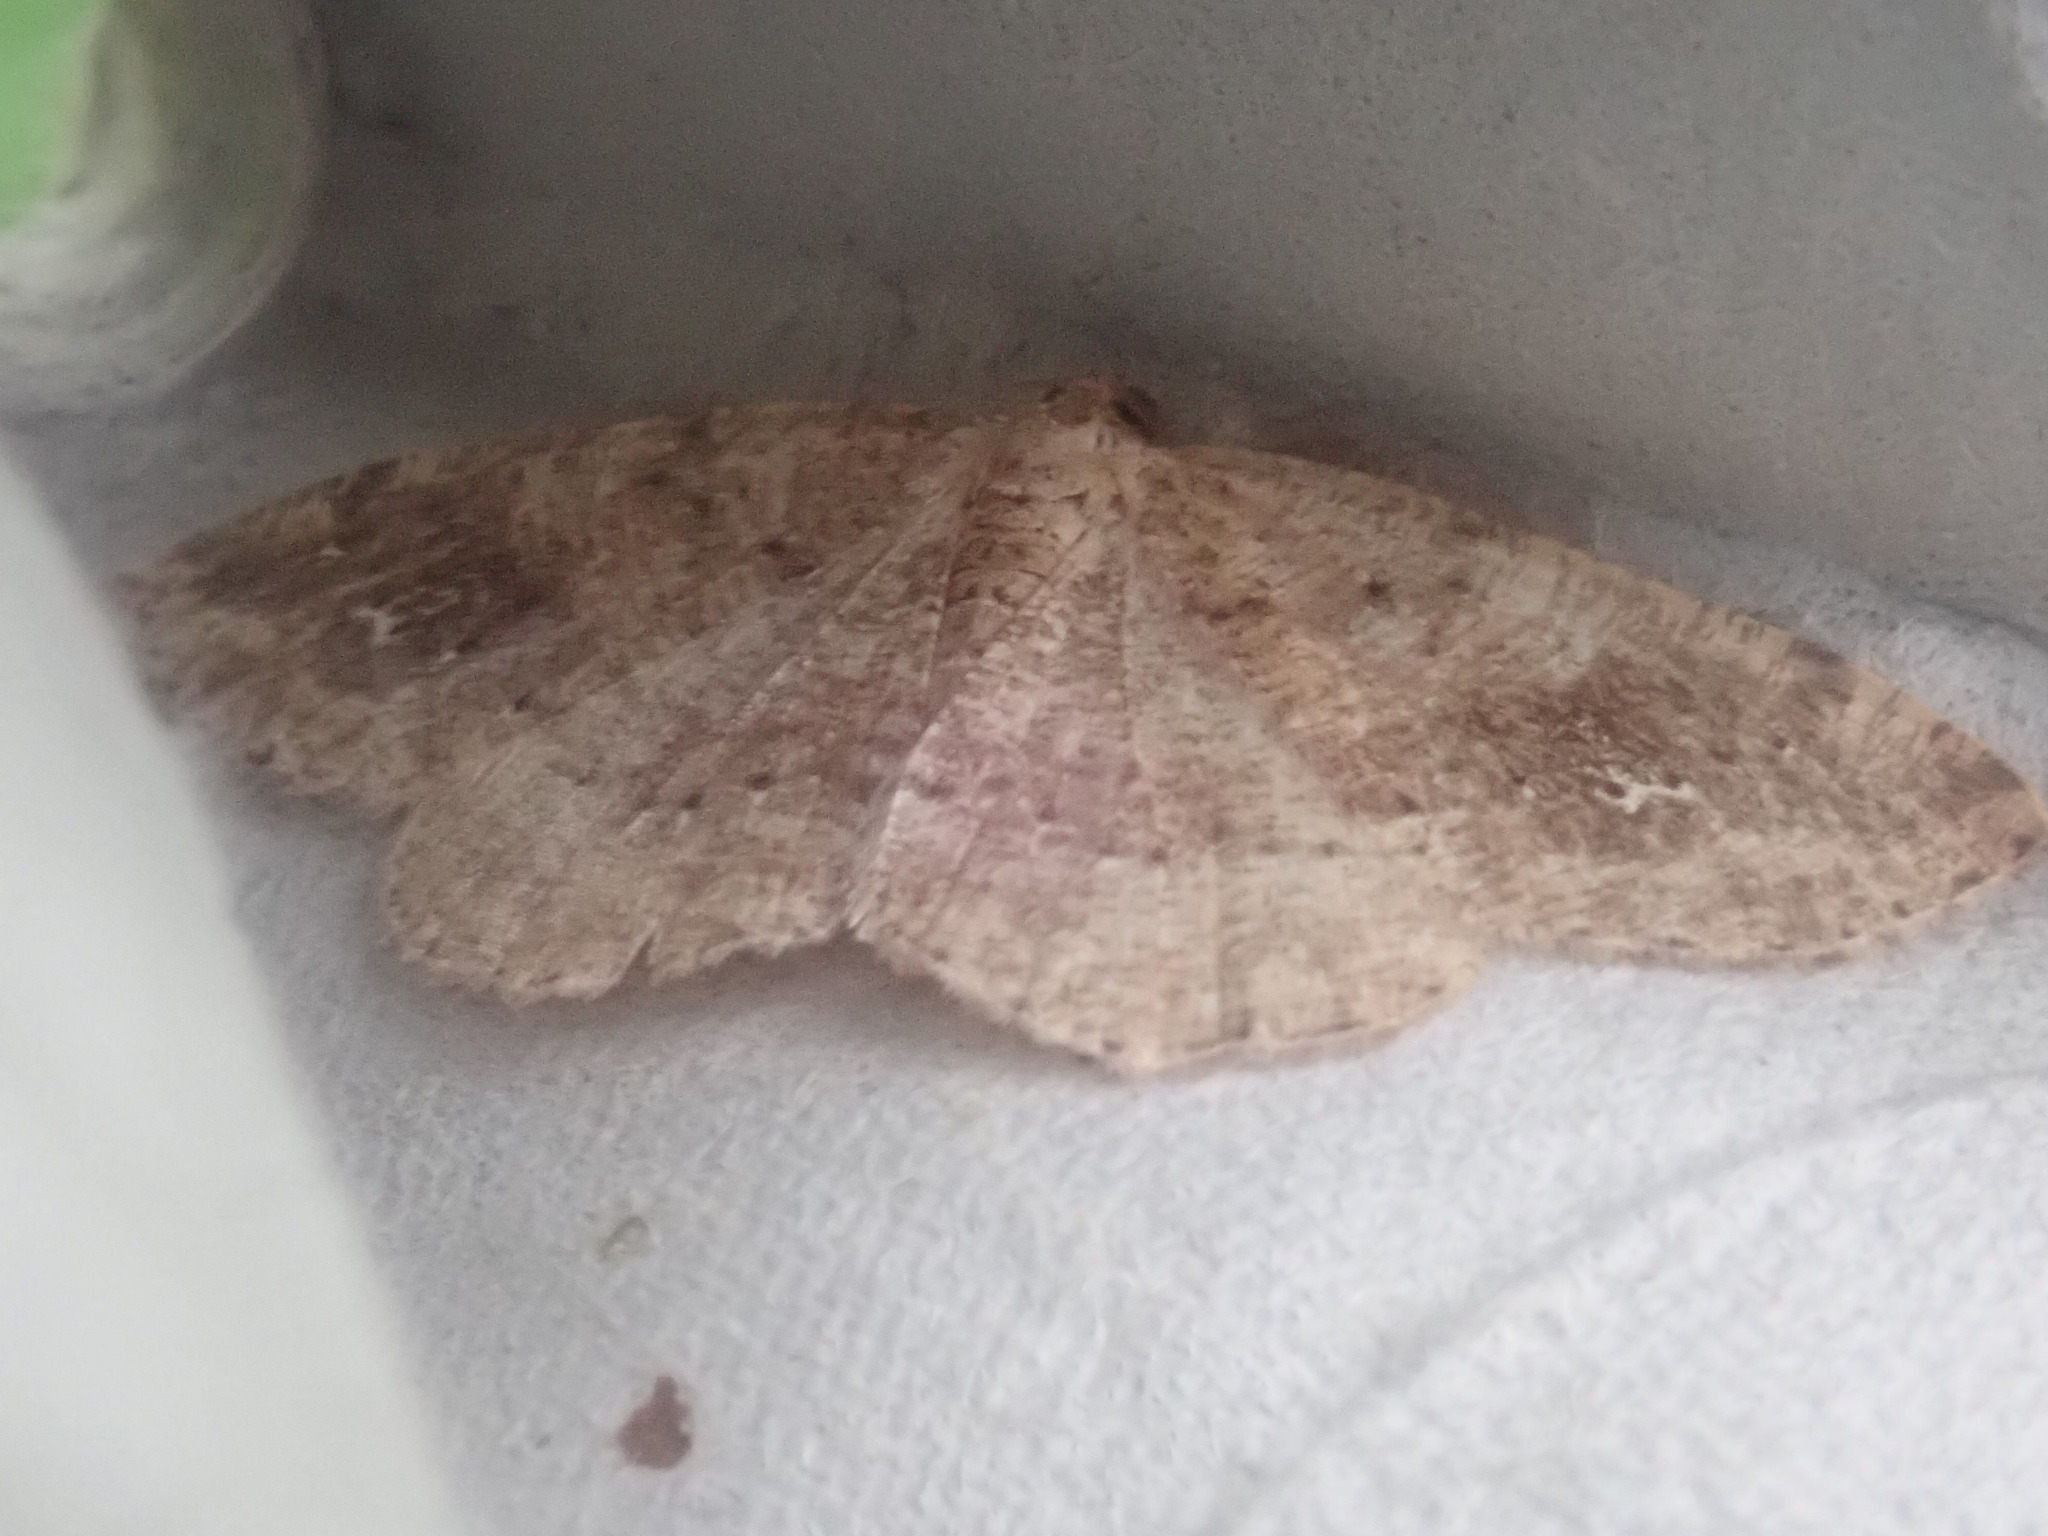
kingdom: Animalia
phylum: Arthropoda
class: Insecta
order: Lepidoptera
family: Geometridae
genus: Homochlodes
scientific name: Homochlodes fritillaria
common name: Pale homochlodes
